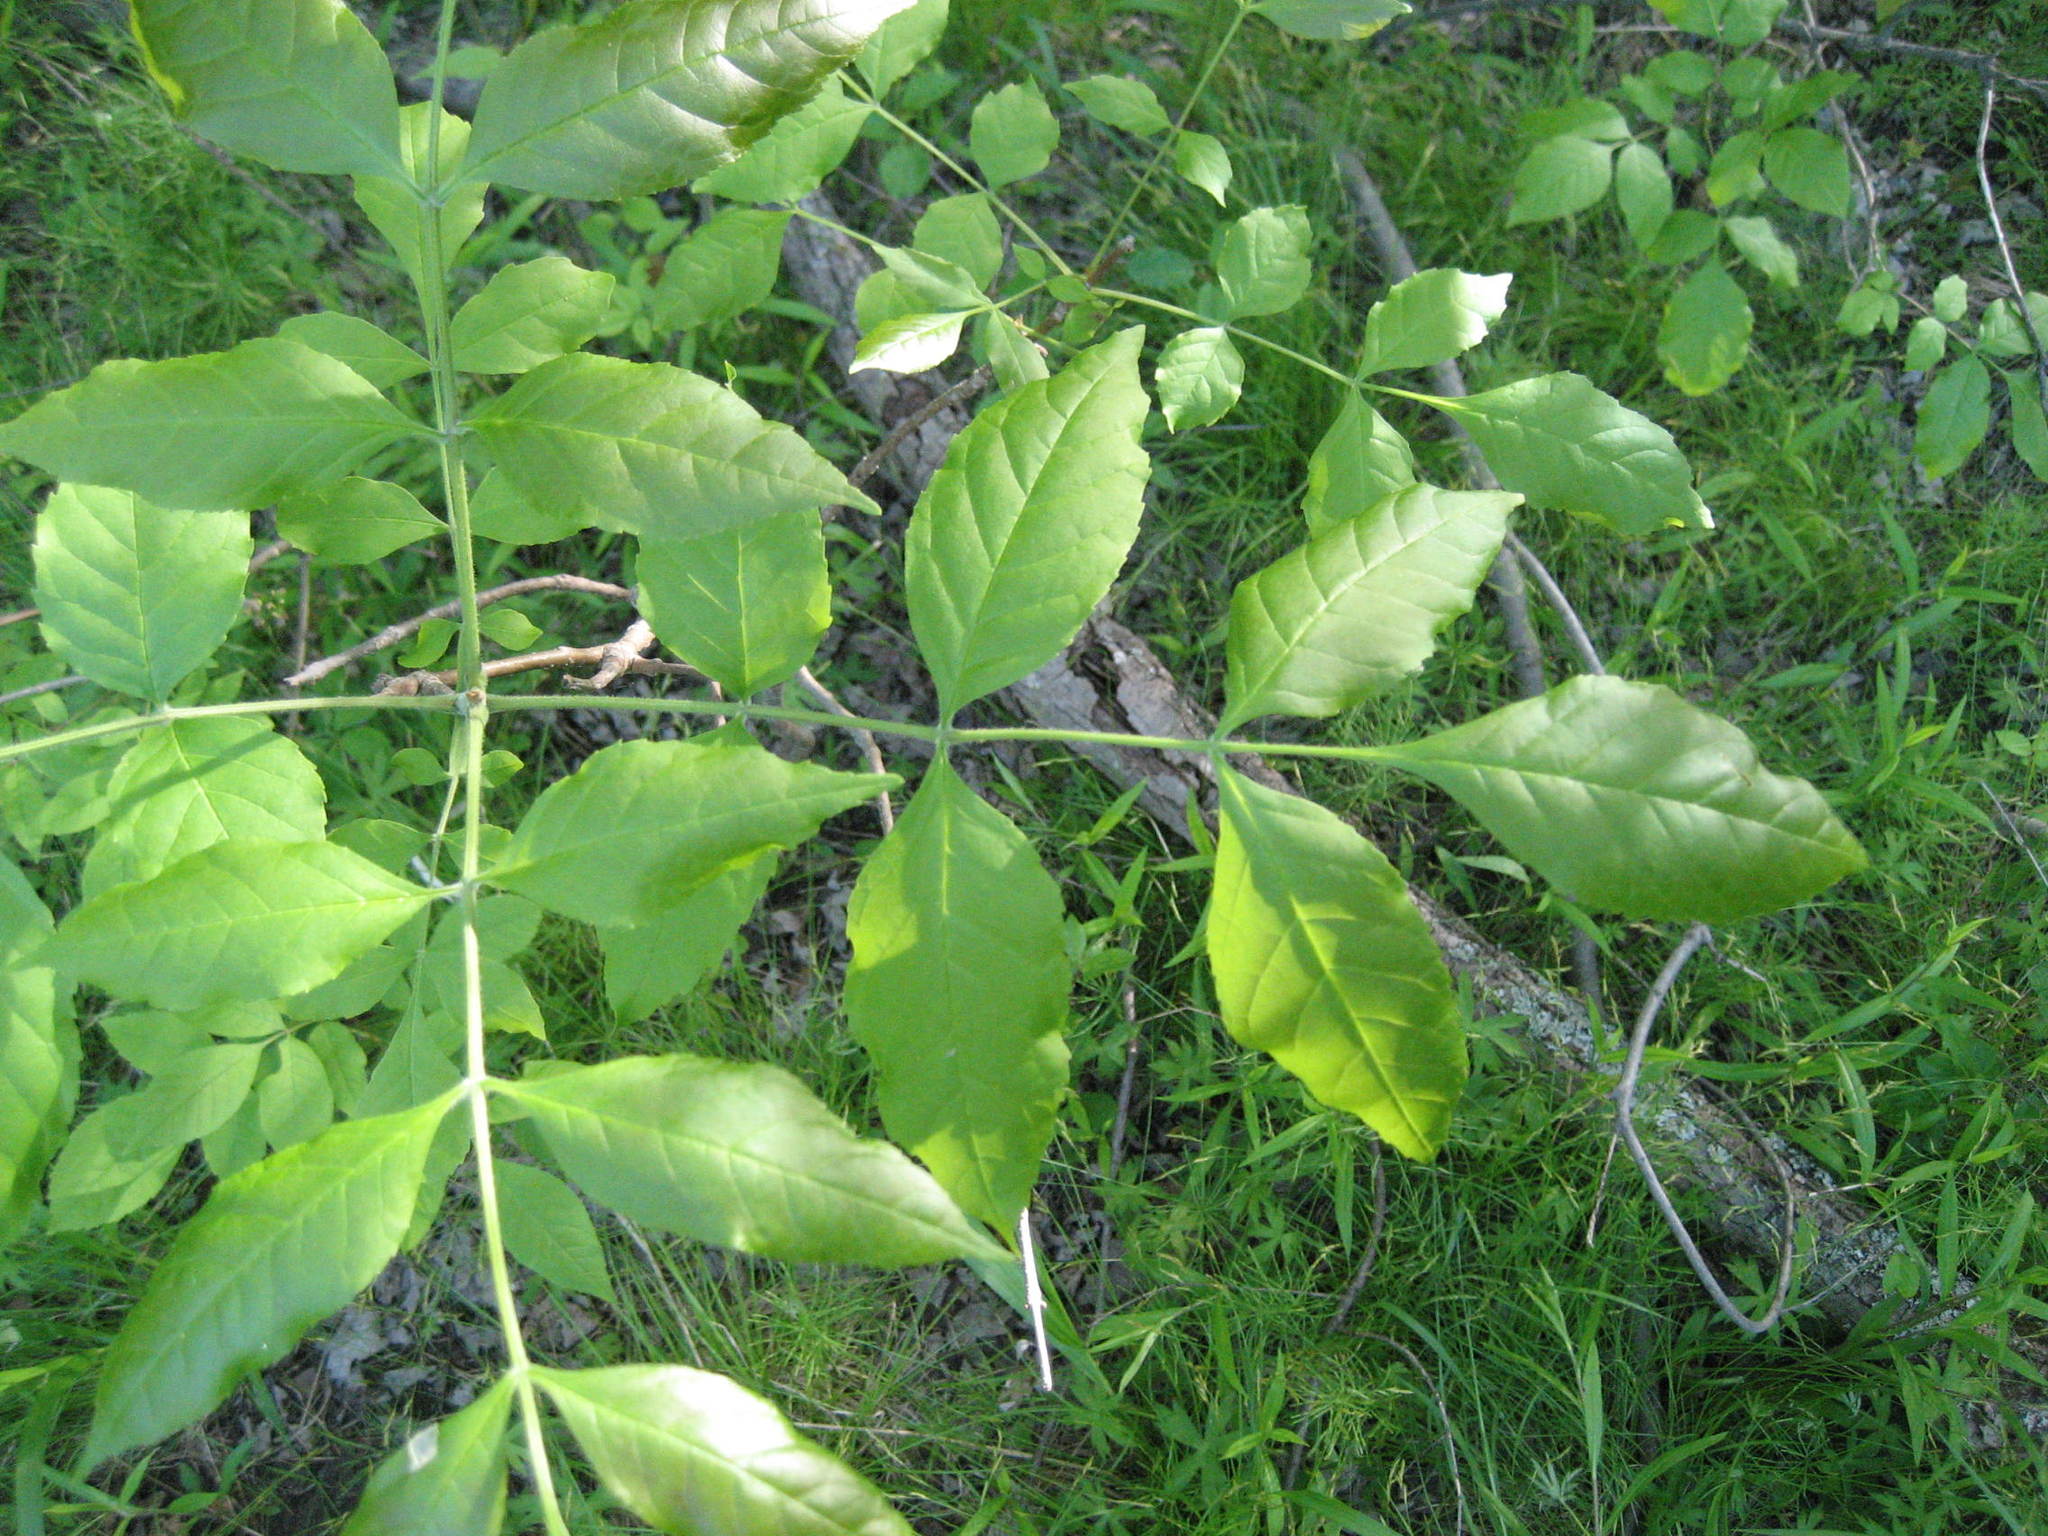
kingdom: Plantae
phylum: Tracheophyta
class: Magnoliopsida
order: Lamiales
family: Oleaceae
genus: Fraxinus
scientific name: Fraxinus pennsylvanica
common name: Green ash
